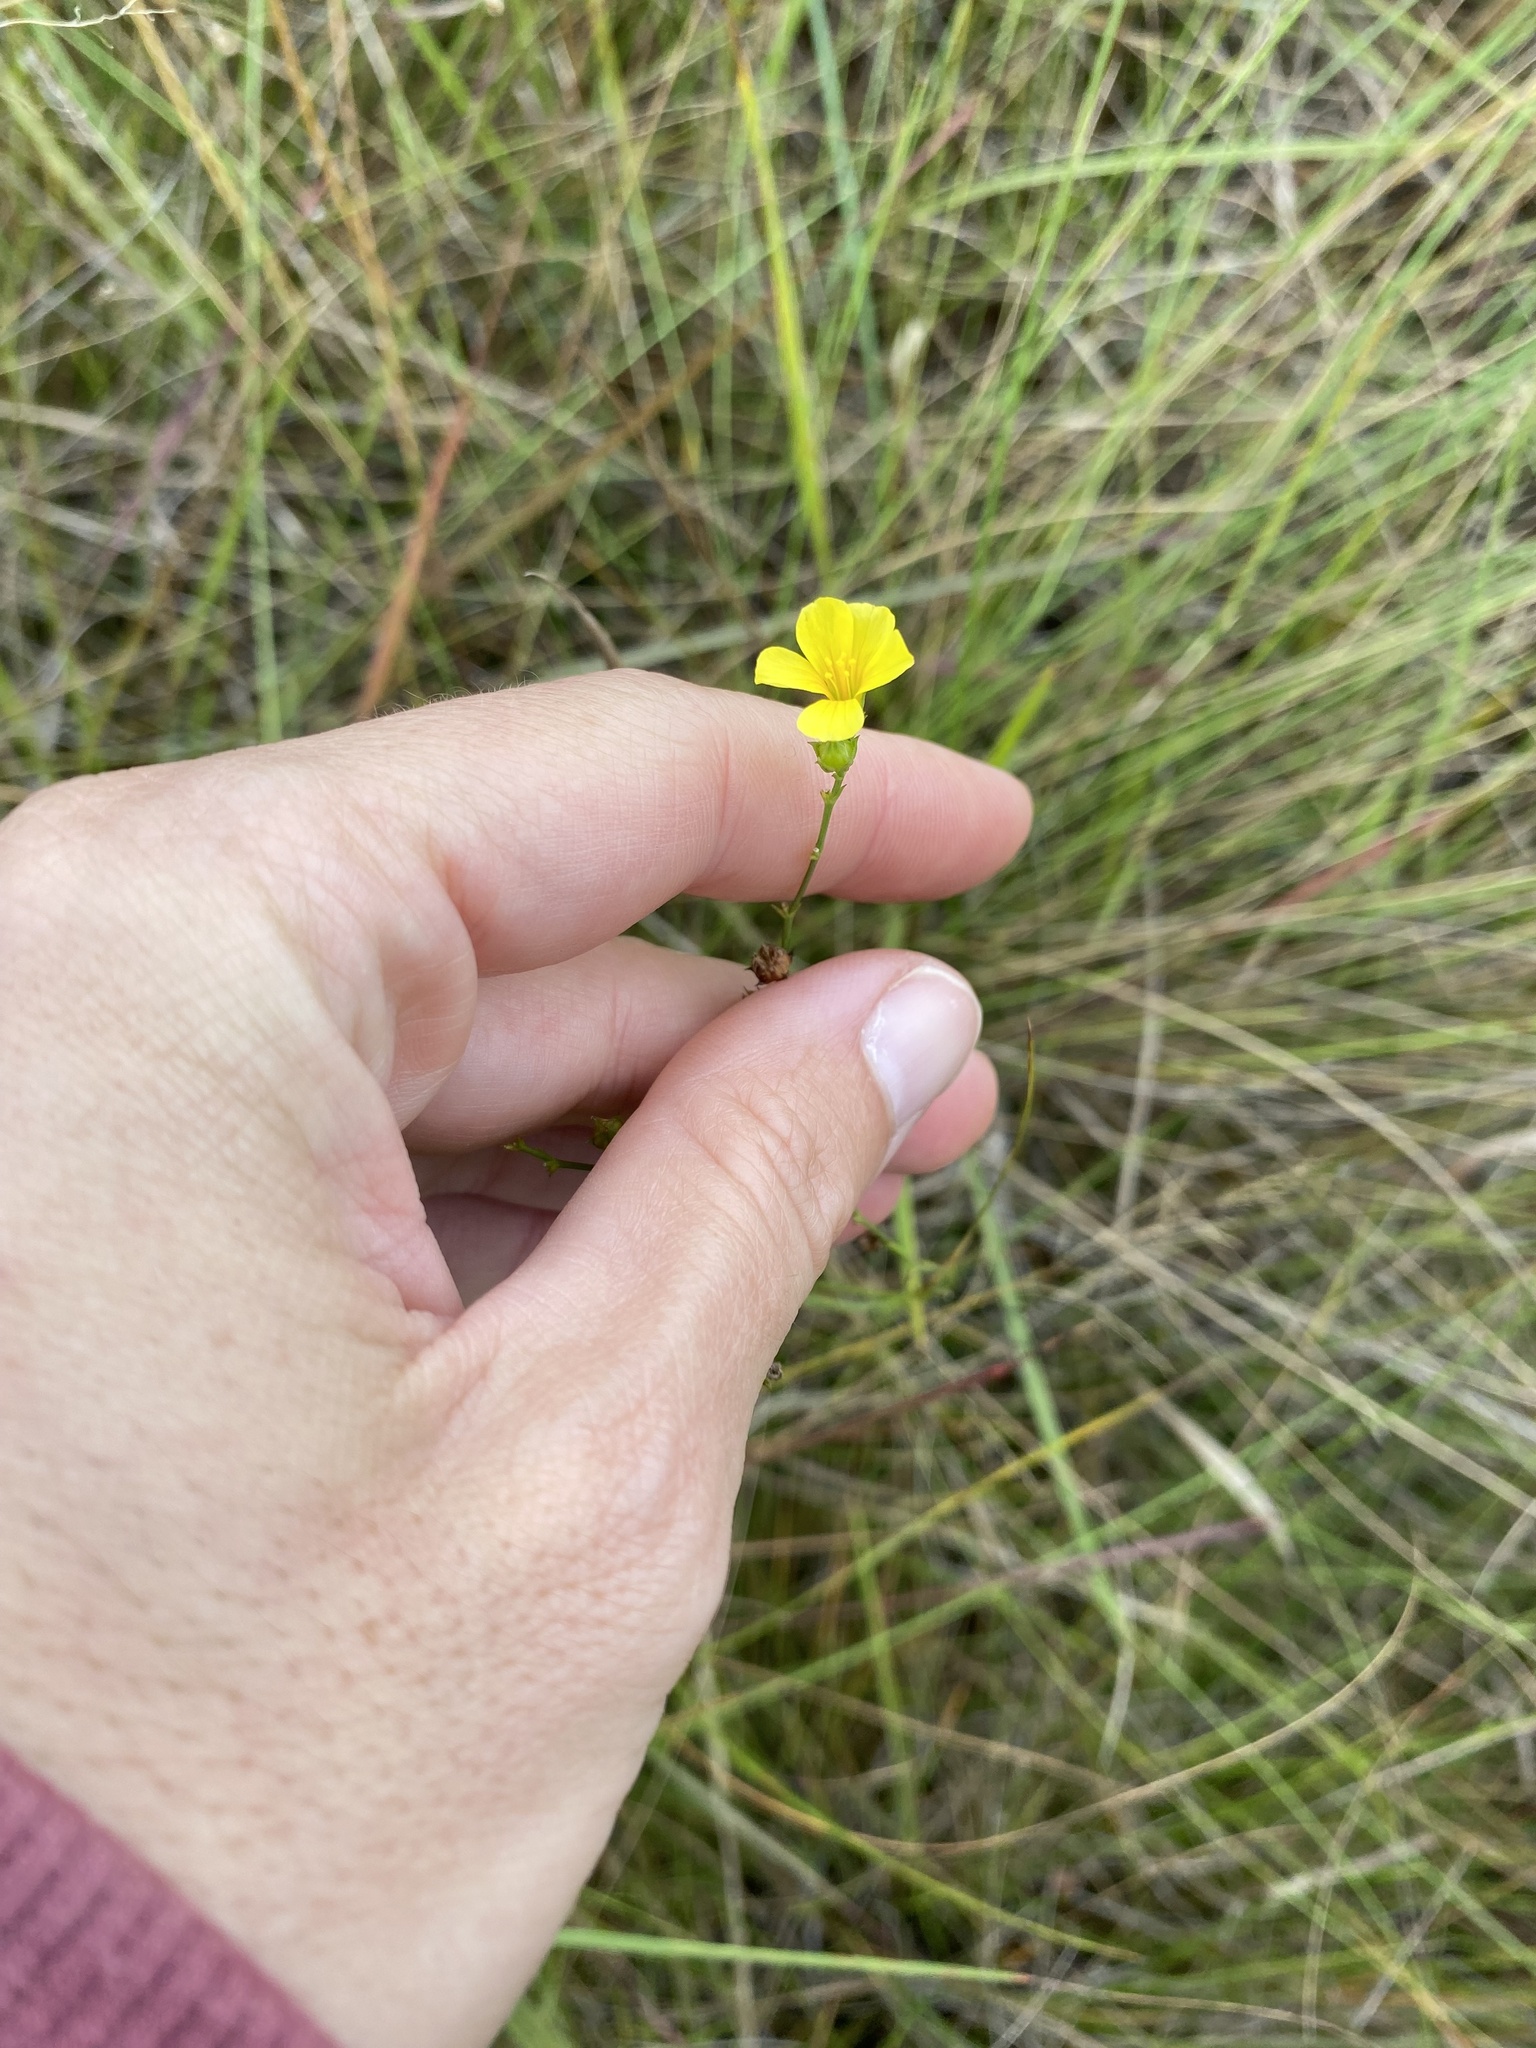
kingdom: Plantae
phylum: Tracheophyta
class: Magnoliopsida
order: Malpighiales
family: Linaceae
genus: Linum
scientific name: Linum thunbergii
